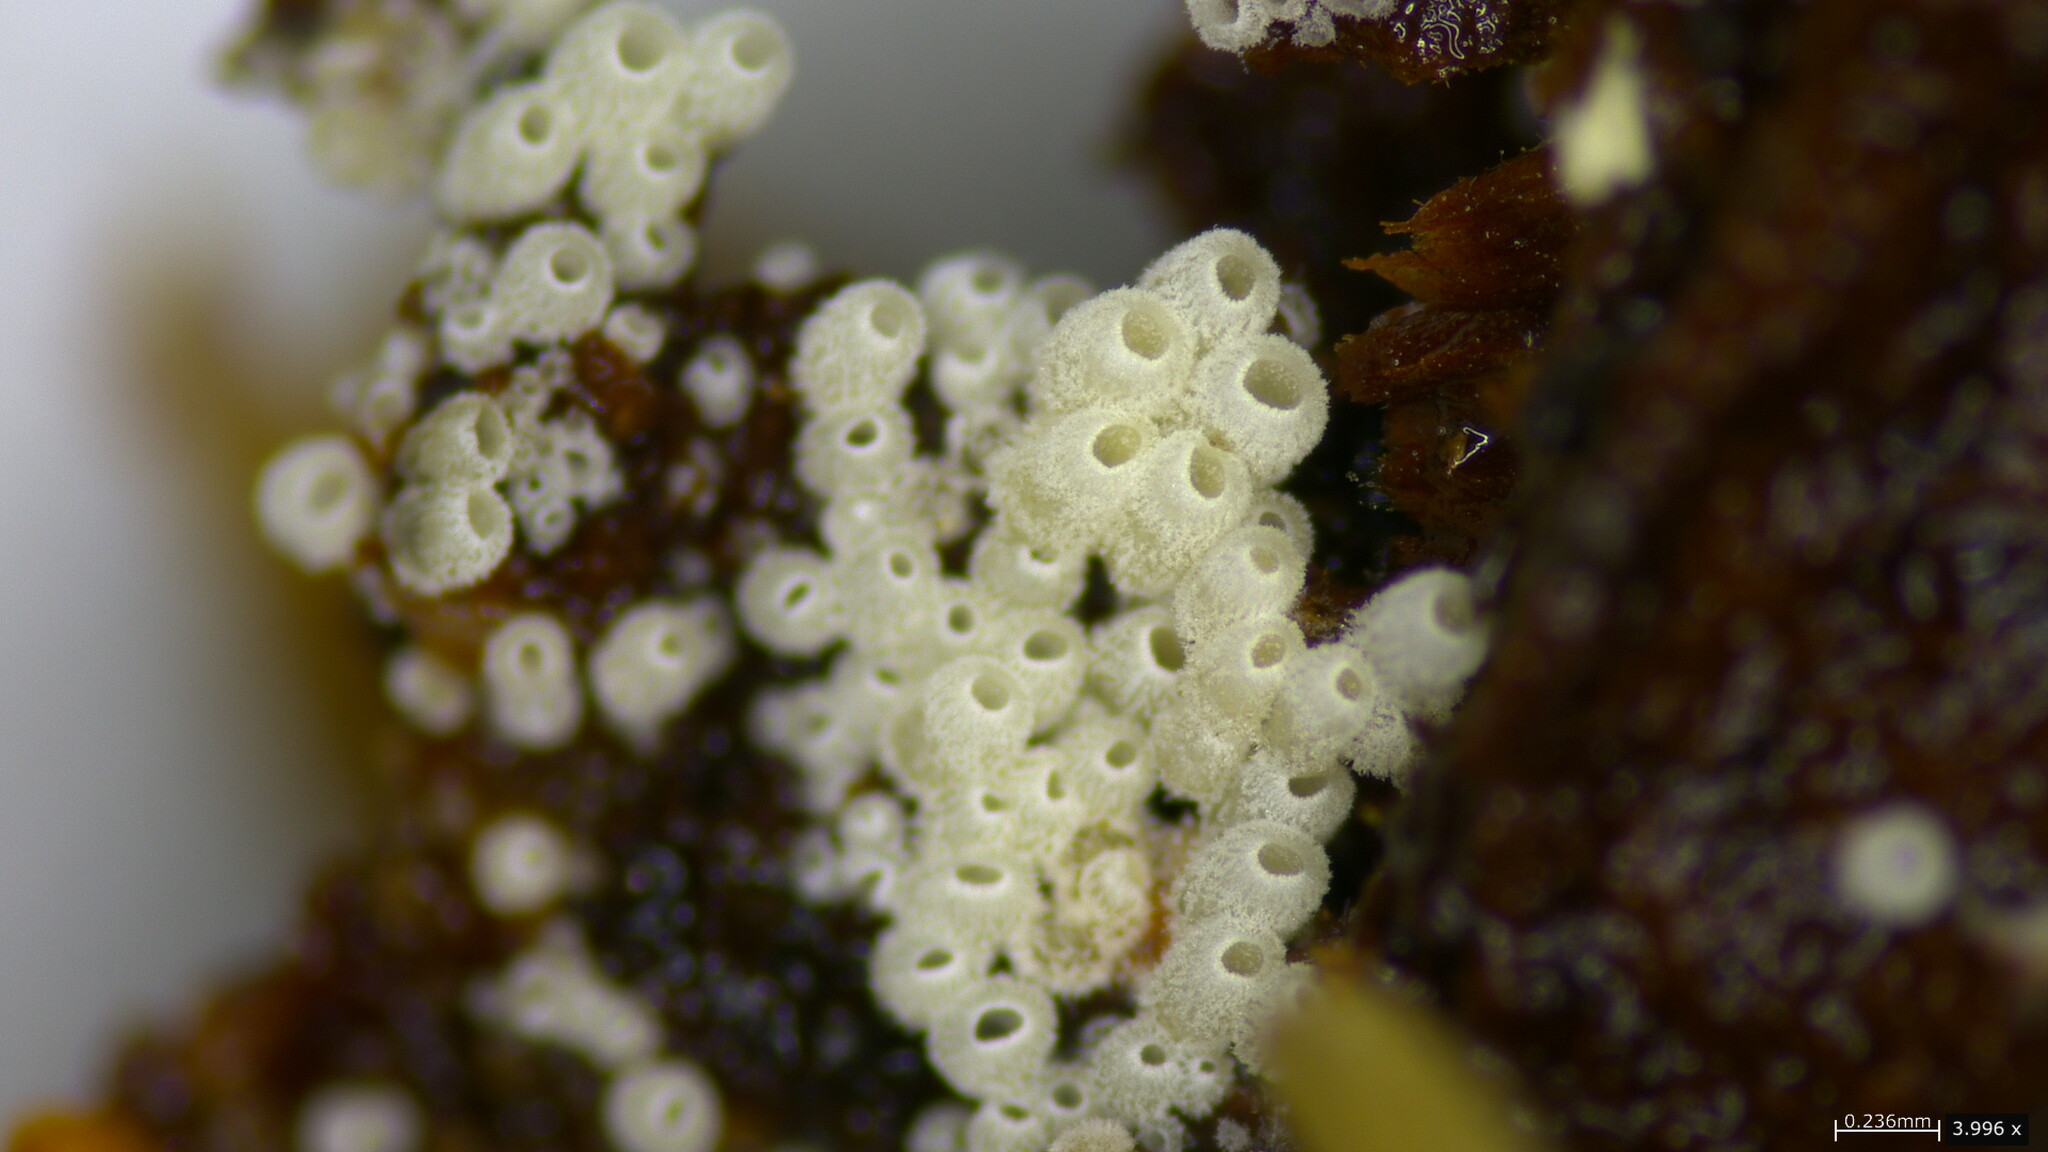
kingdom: Fungi
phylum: Basidiomycota
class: Agaricomycetes
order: Agaricales
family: Marasmiaceae
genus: Henningsomyces
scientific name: Henningsomyces candidus
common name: White tubelet
